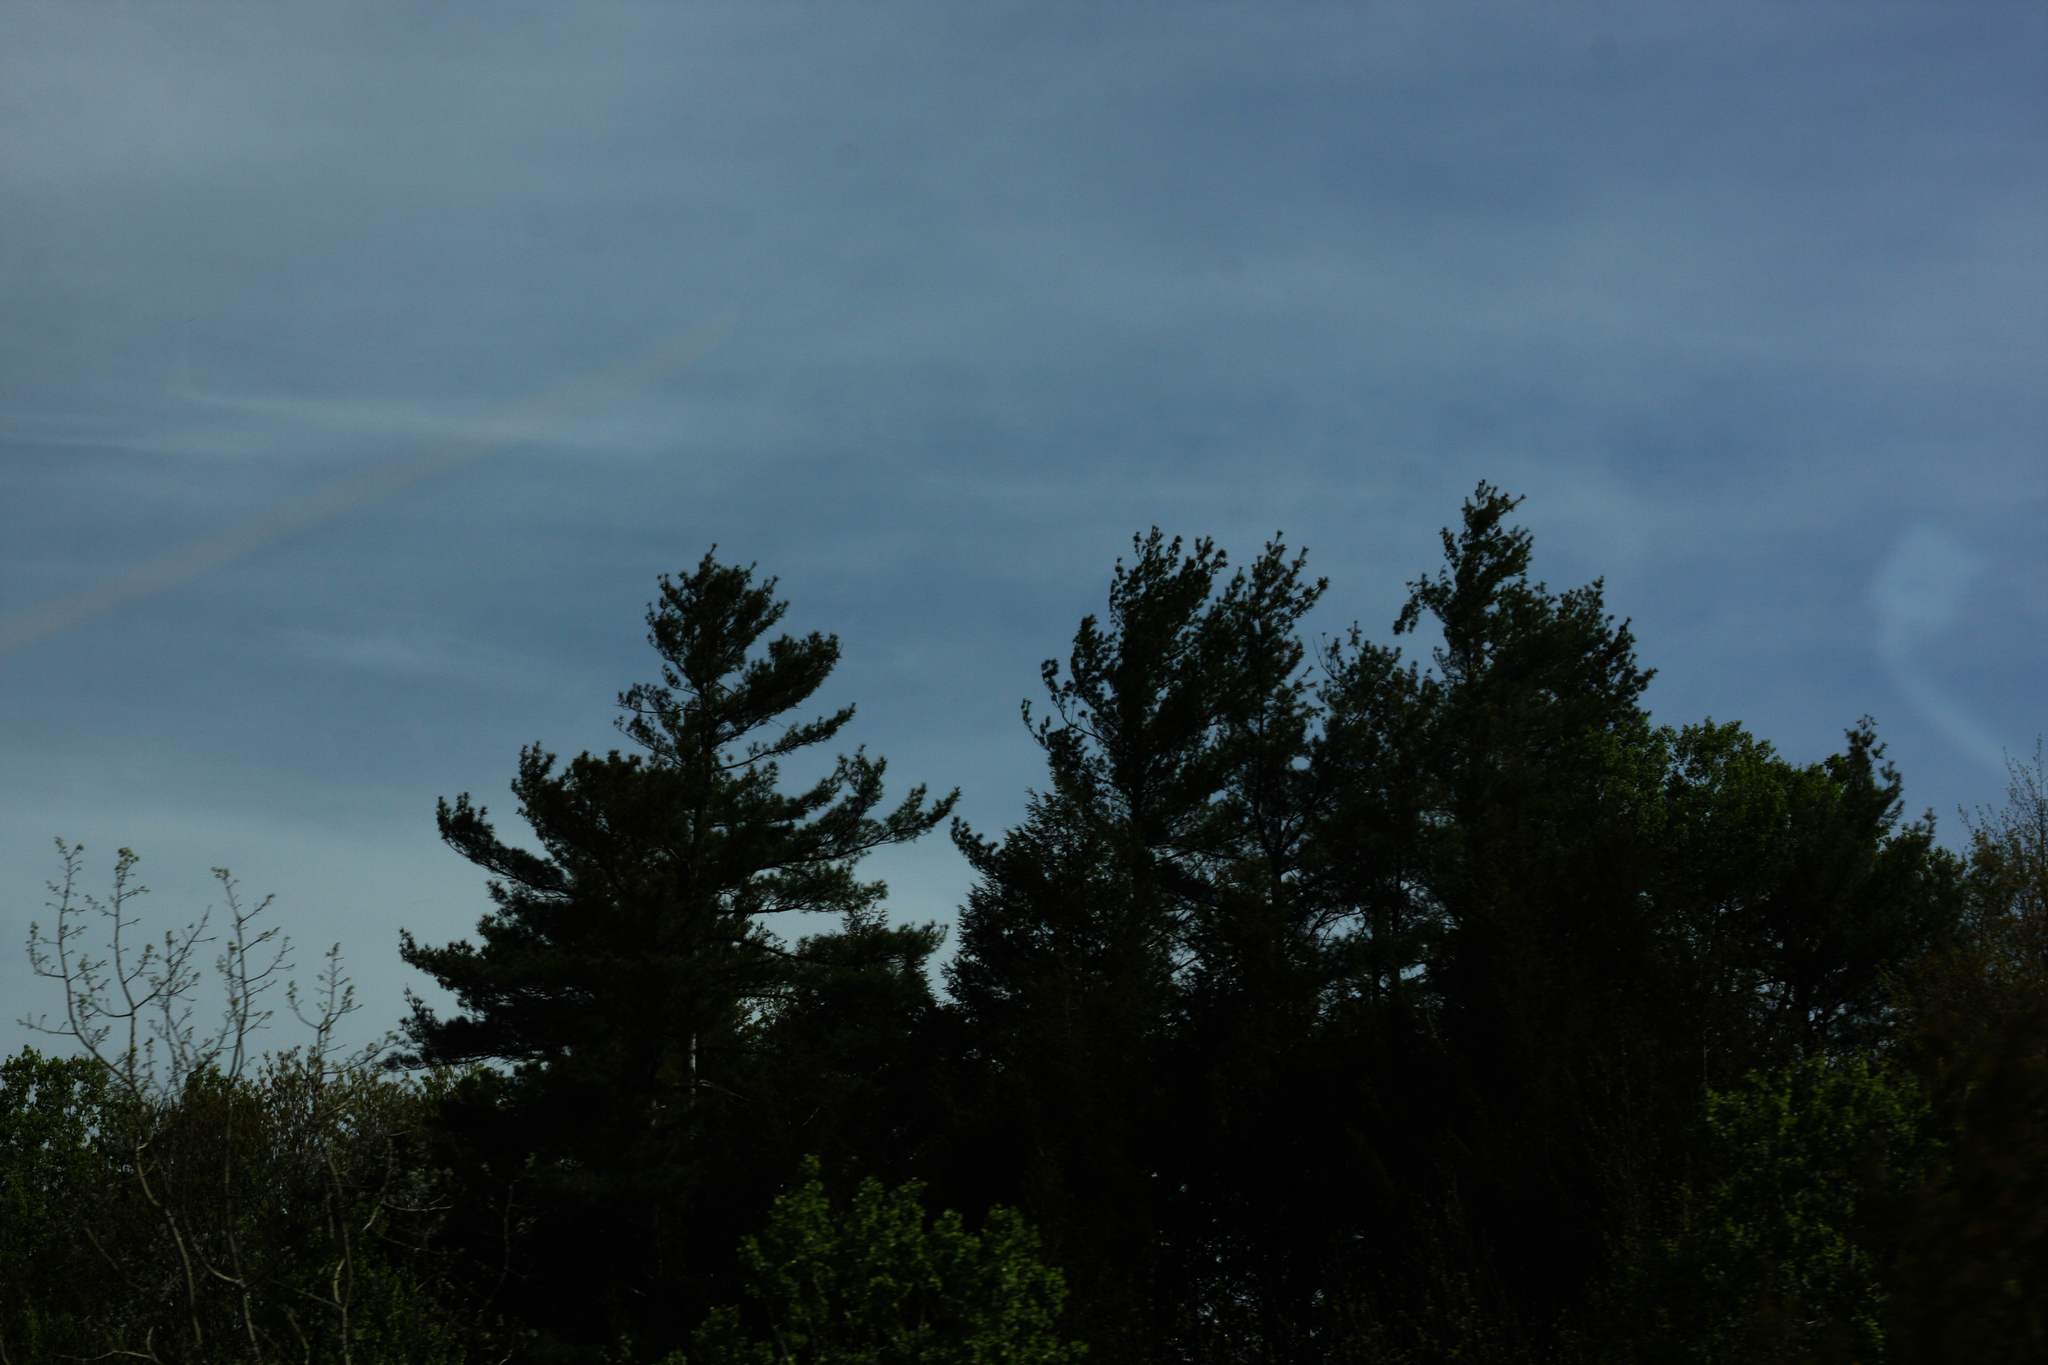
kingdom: Plantae
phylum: Tracheophyta
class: Pinopsida
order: Pinales
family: Pinaceae
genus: Pinus
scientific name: Pinus strobus
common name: Weymouth pine
